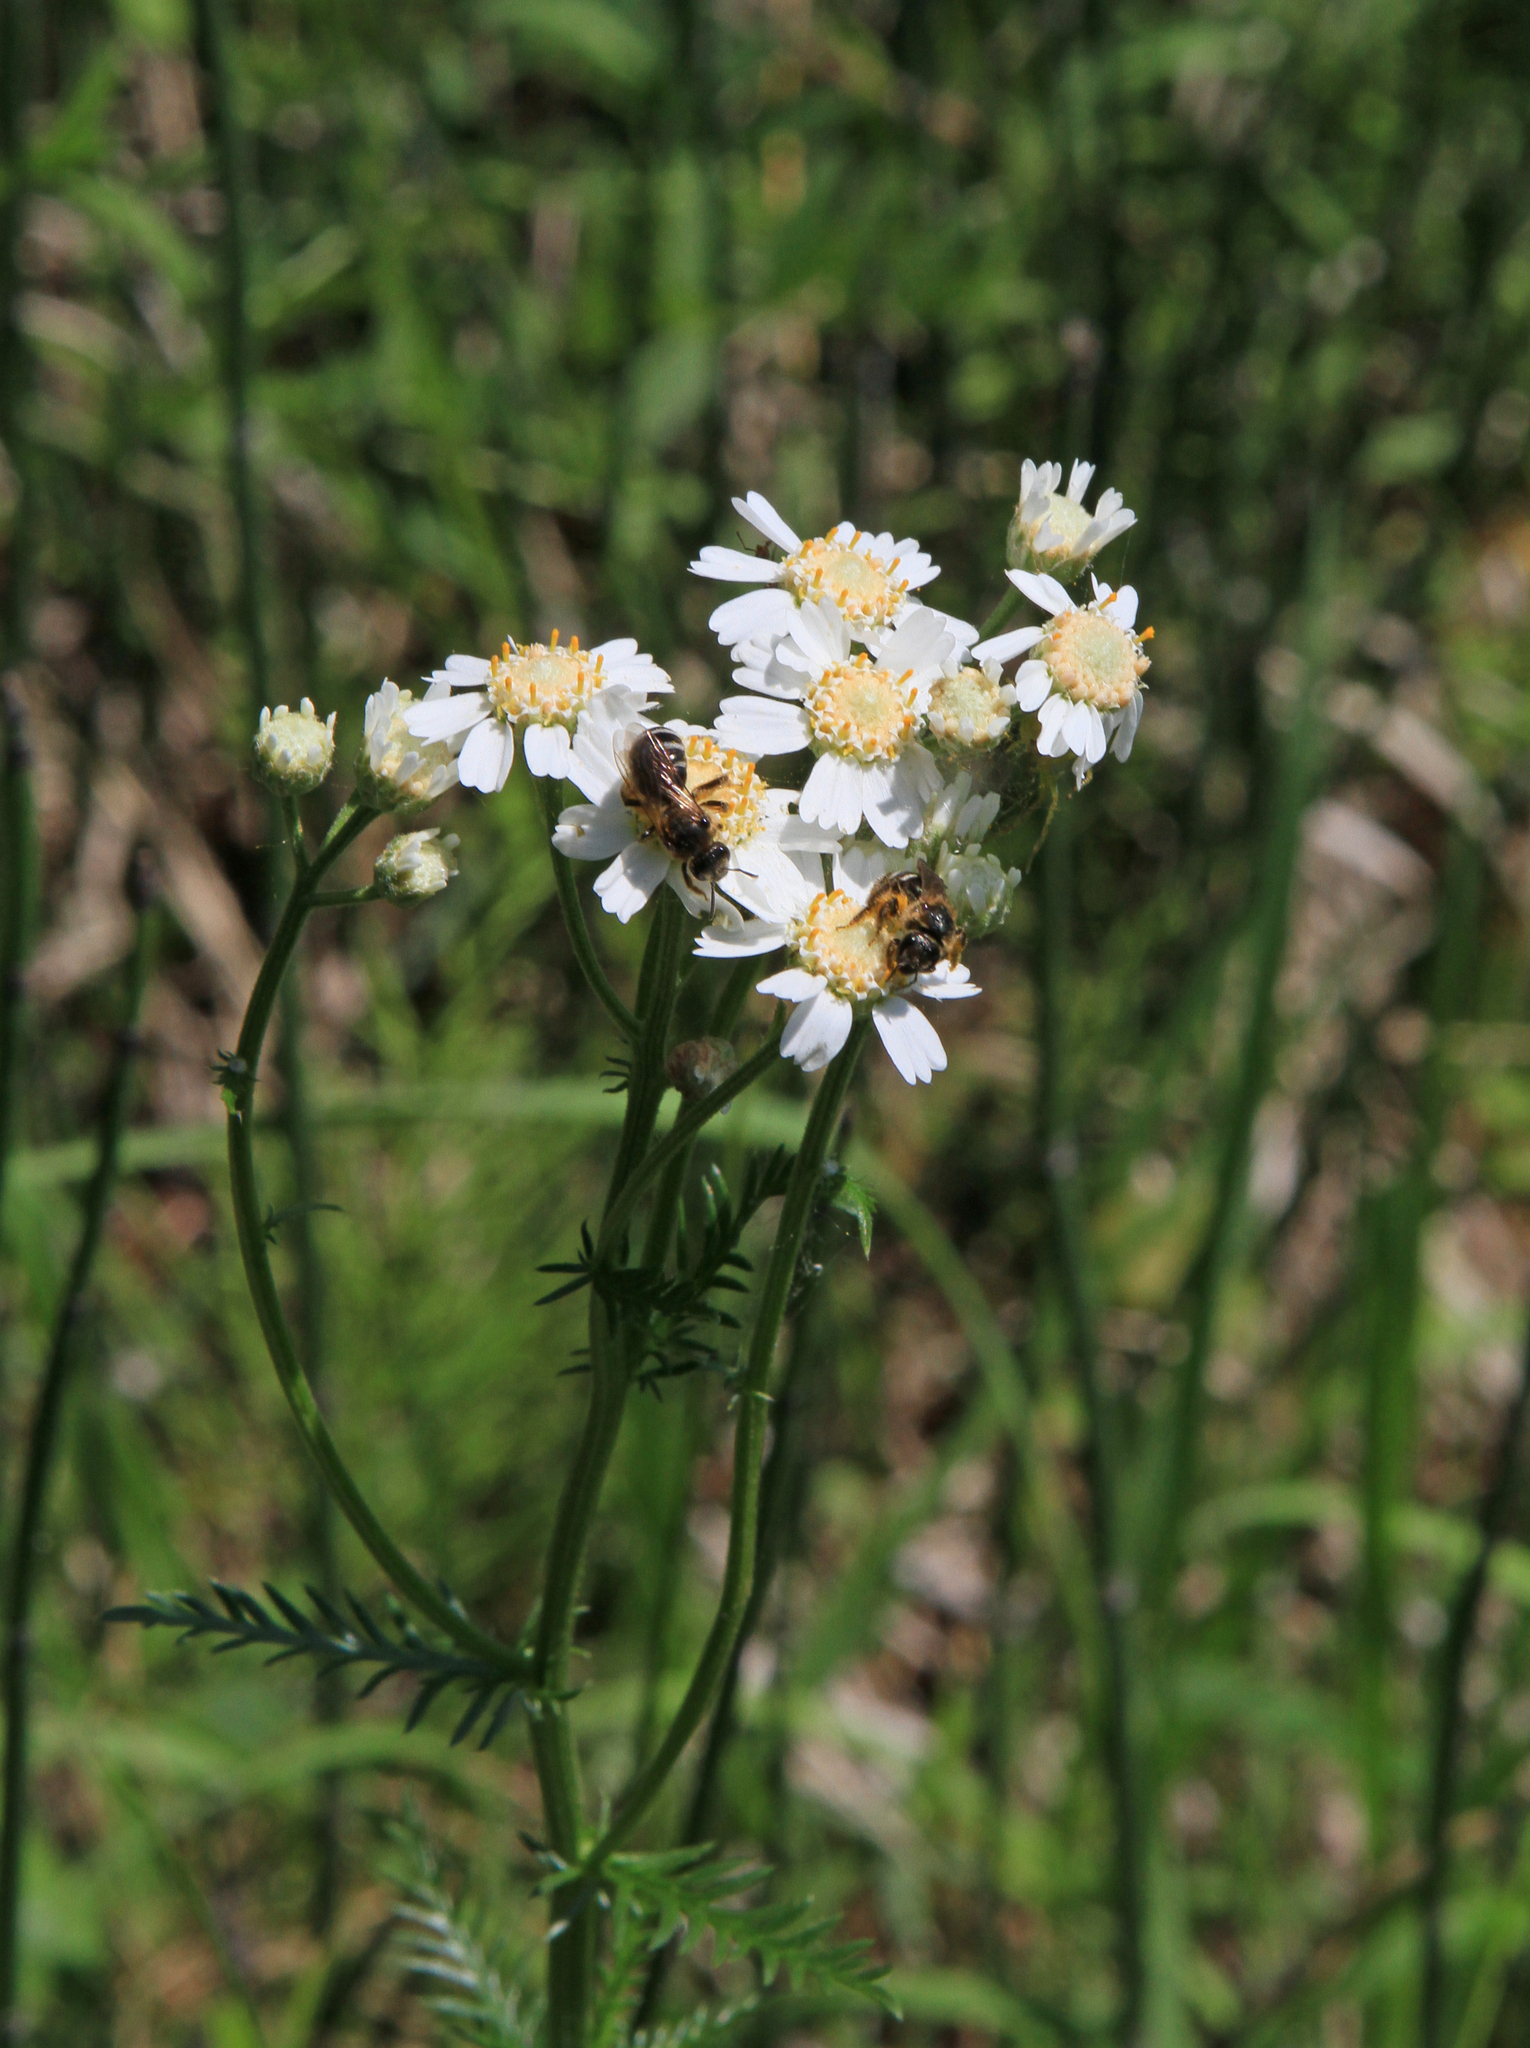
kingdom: Plantae
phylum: Tracheophyta
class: Magnoliopsida
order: Asterales
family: Asteraceae
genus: Achillea
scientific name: Achillea impatiens
